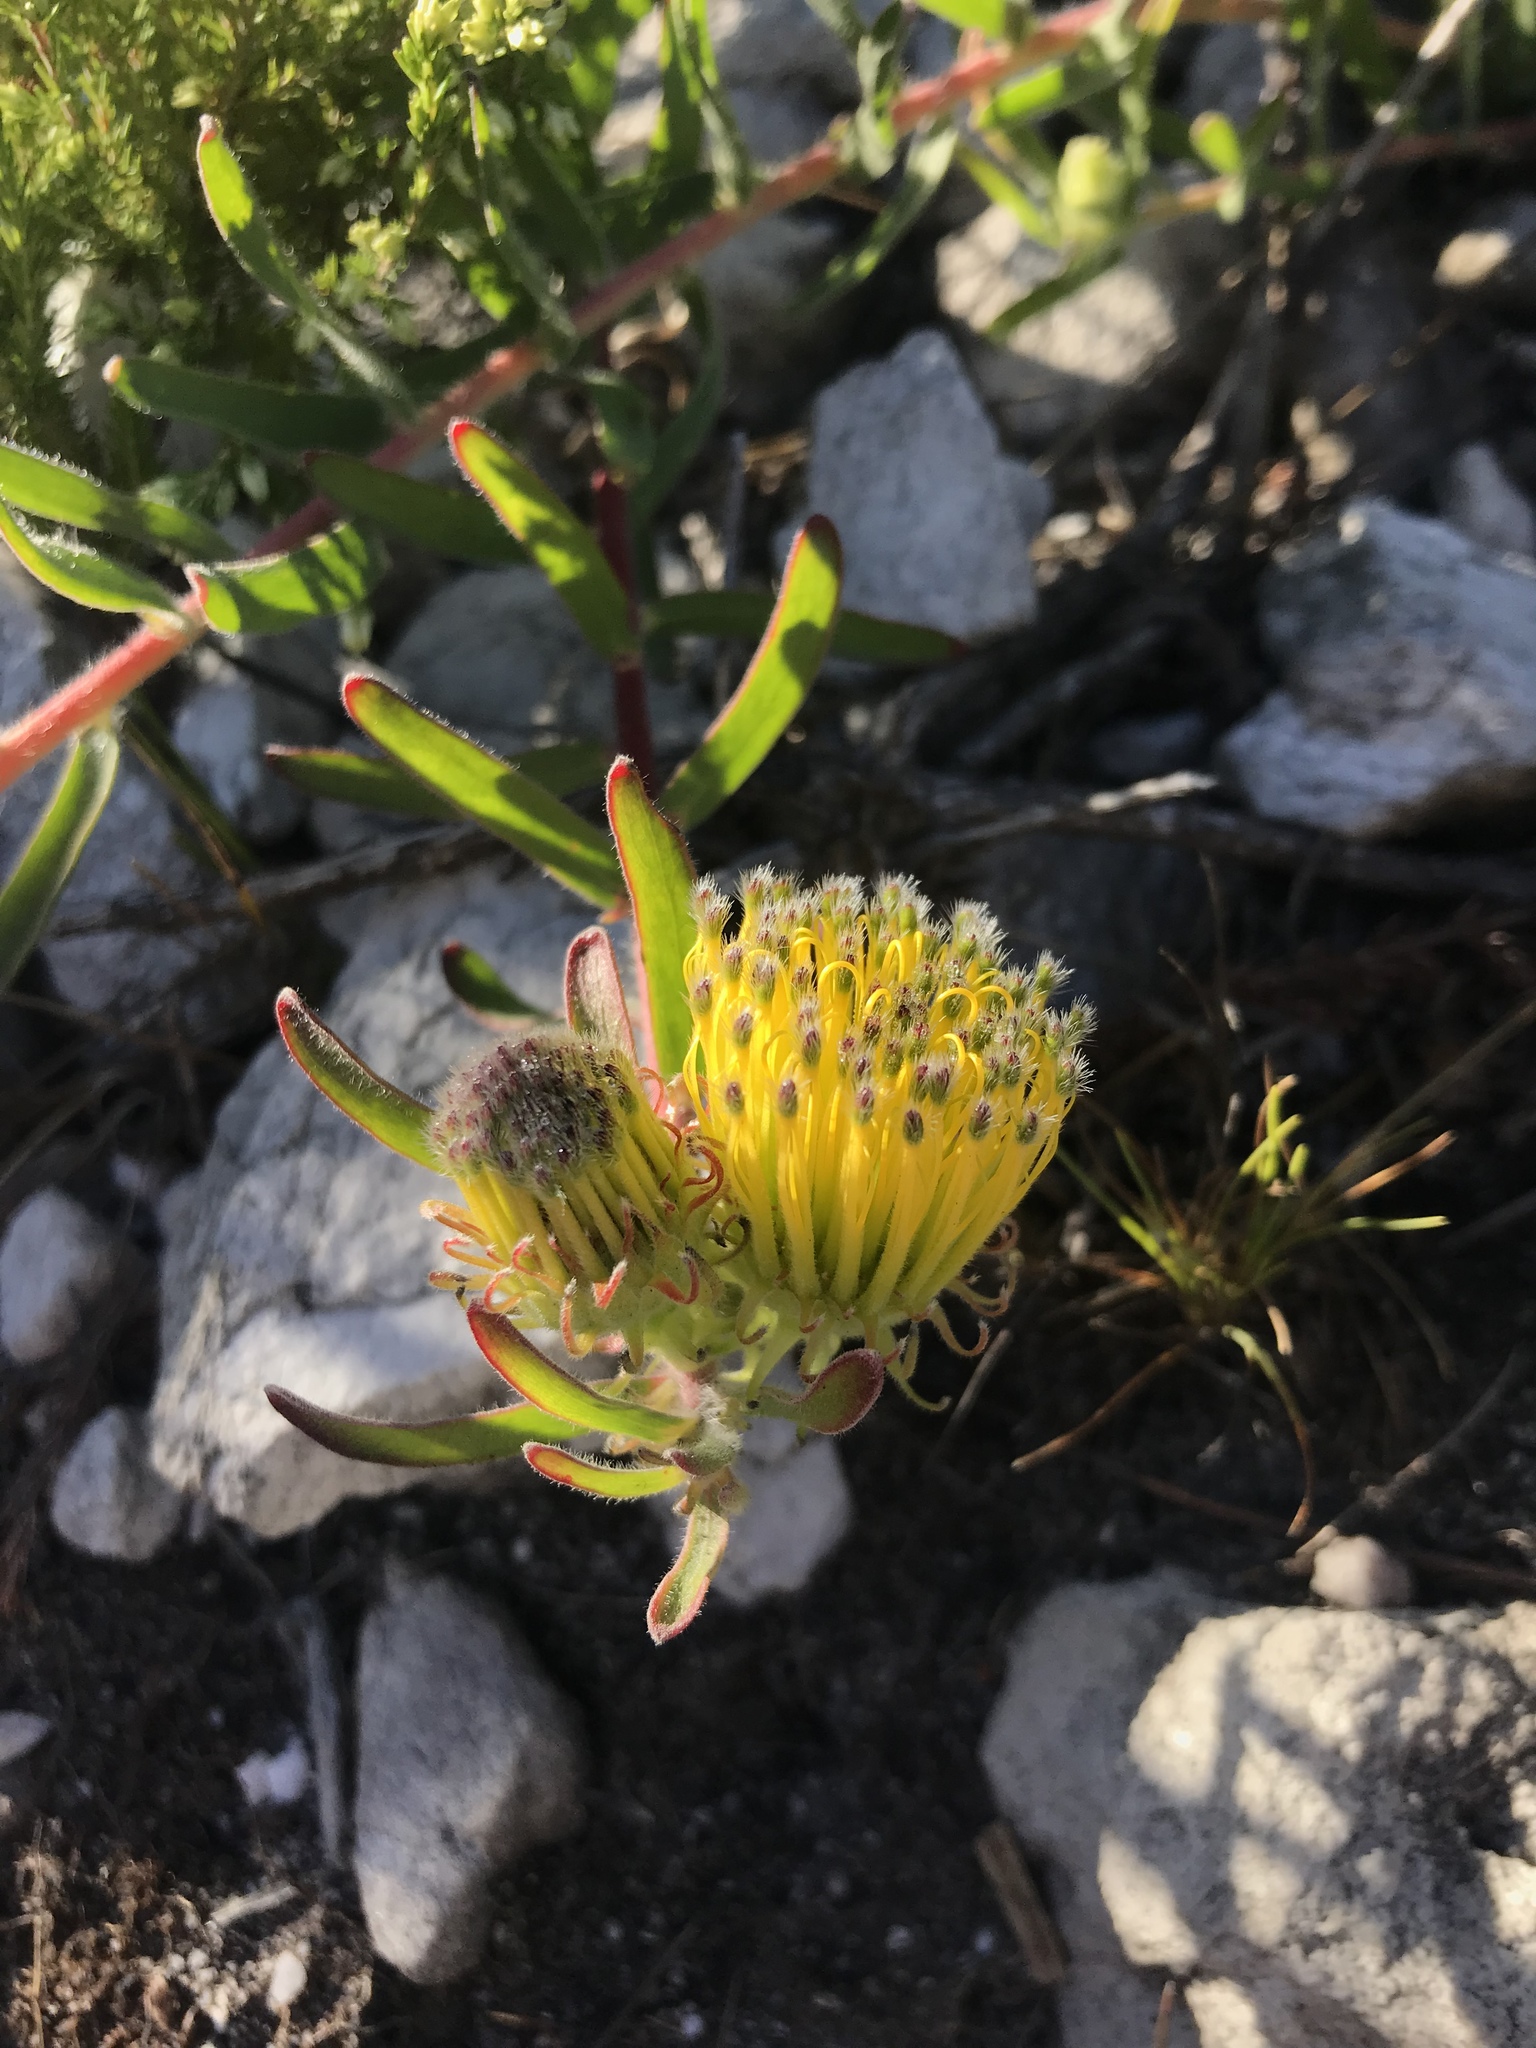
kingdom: Plantae
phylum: Tracheophyta
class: Magnoliopsida
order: Proteales
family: Proteaceae
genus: Leucospermum
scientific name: Leucospermum gracile
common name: Hermanus pincushion
